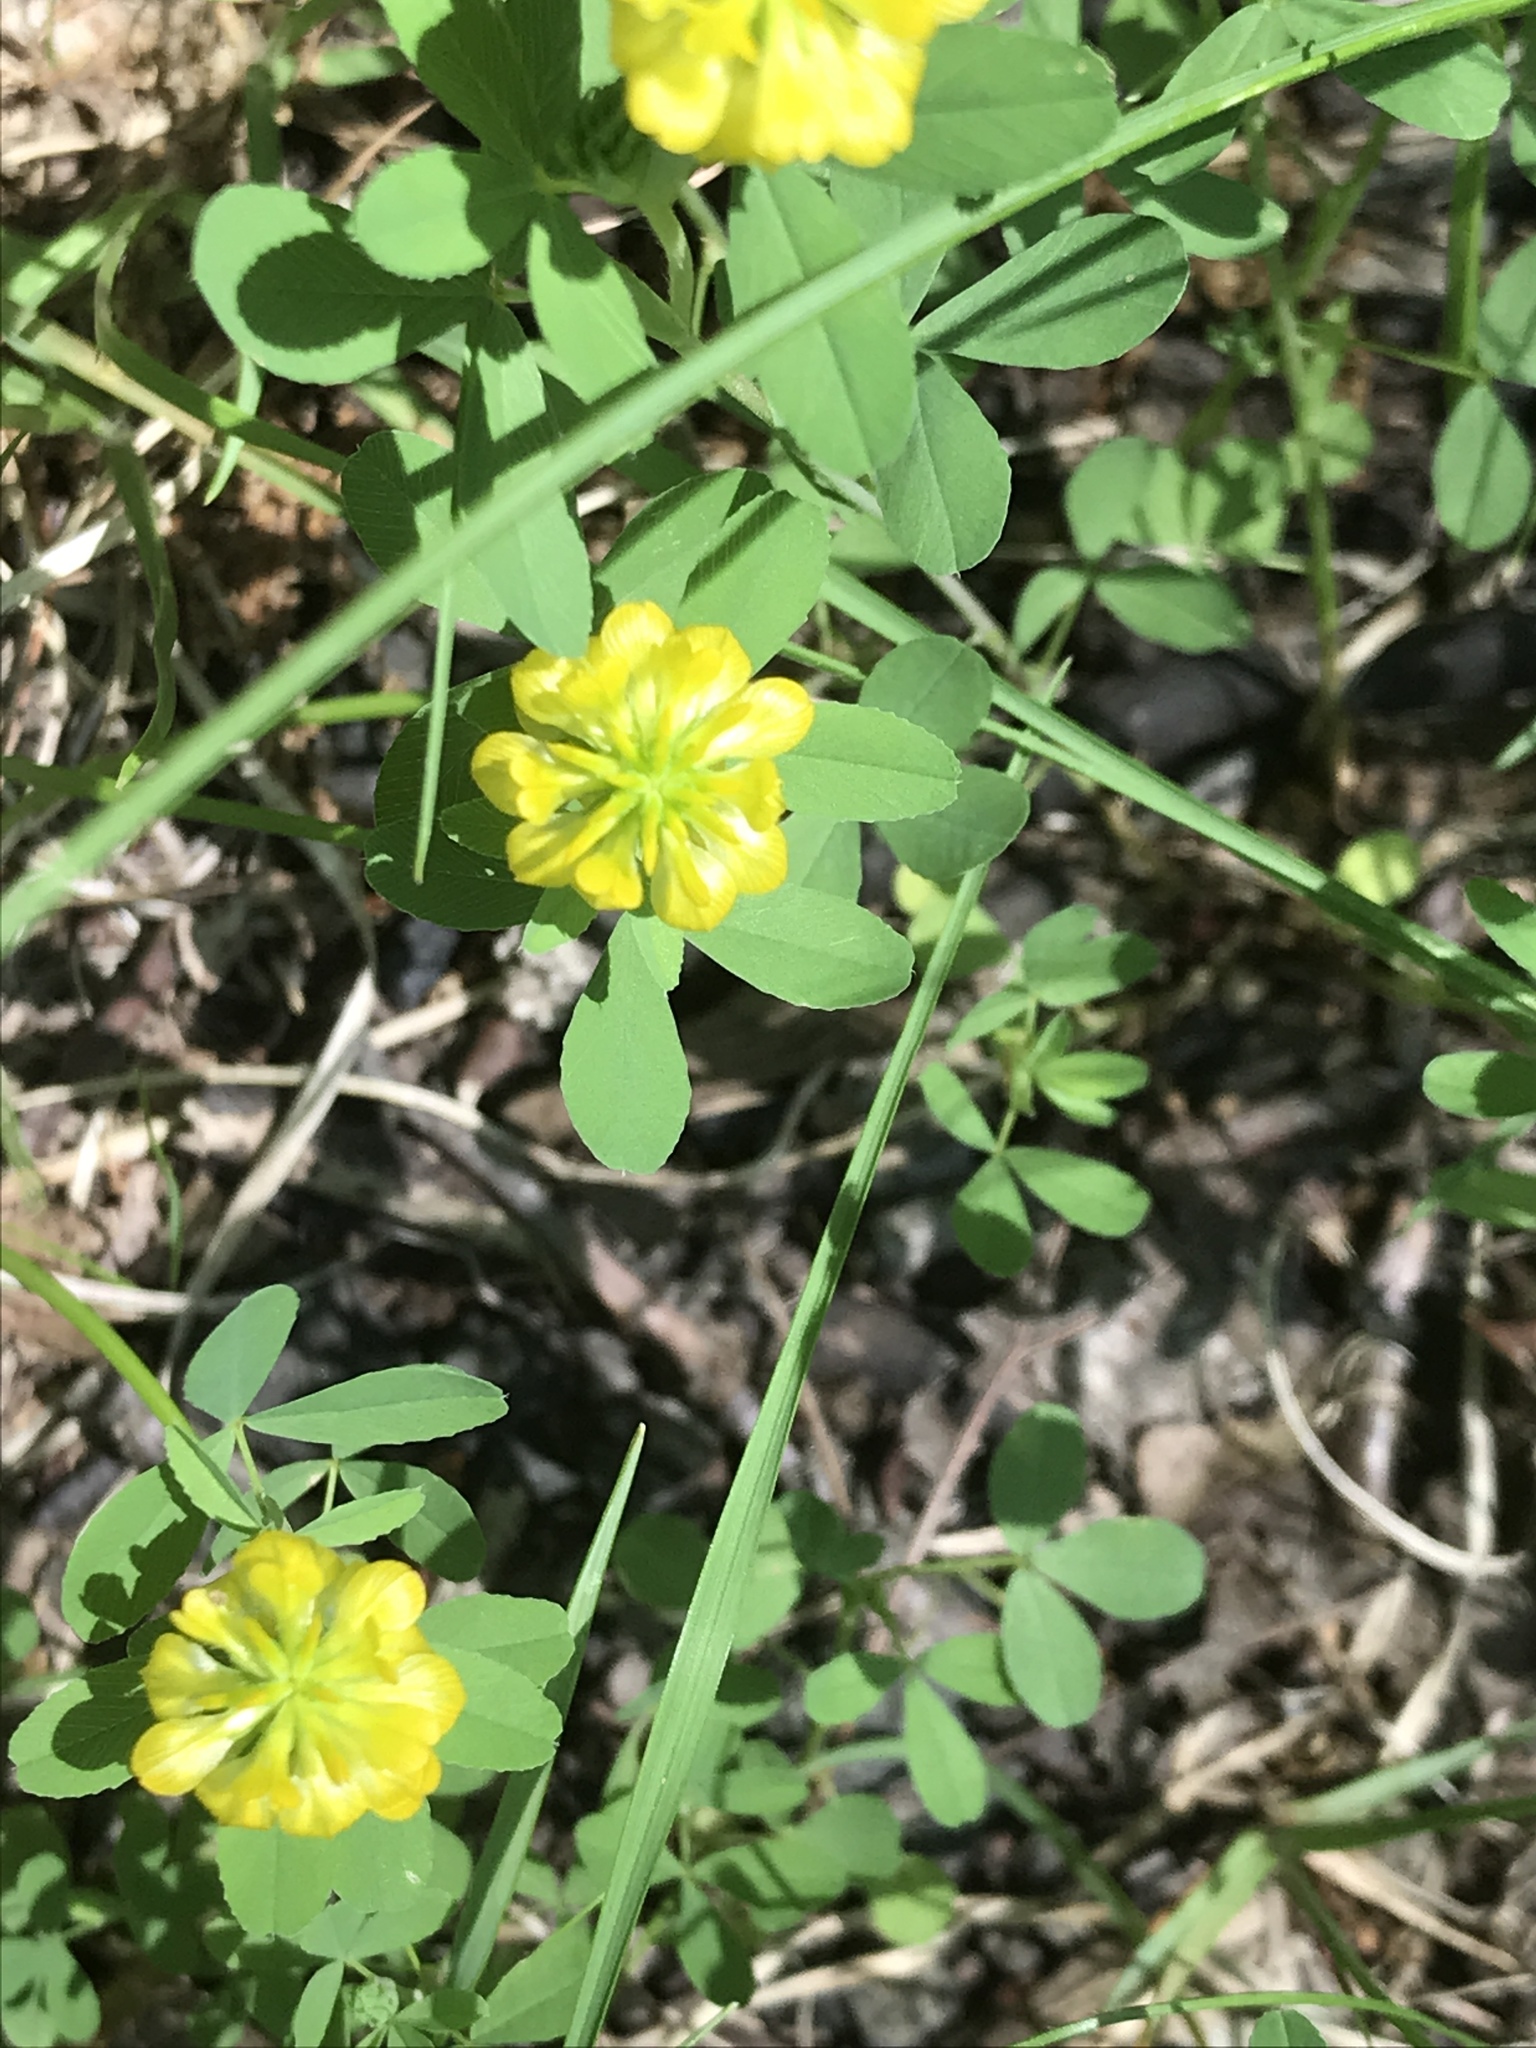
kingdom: Plantae
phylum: Tracheophyta
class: Magnoliopsida
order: Fabales
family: Fabaceae
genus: Trifolium
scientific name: Trifolium aureum
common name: Golden clover
